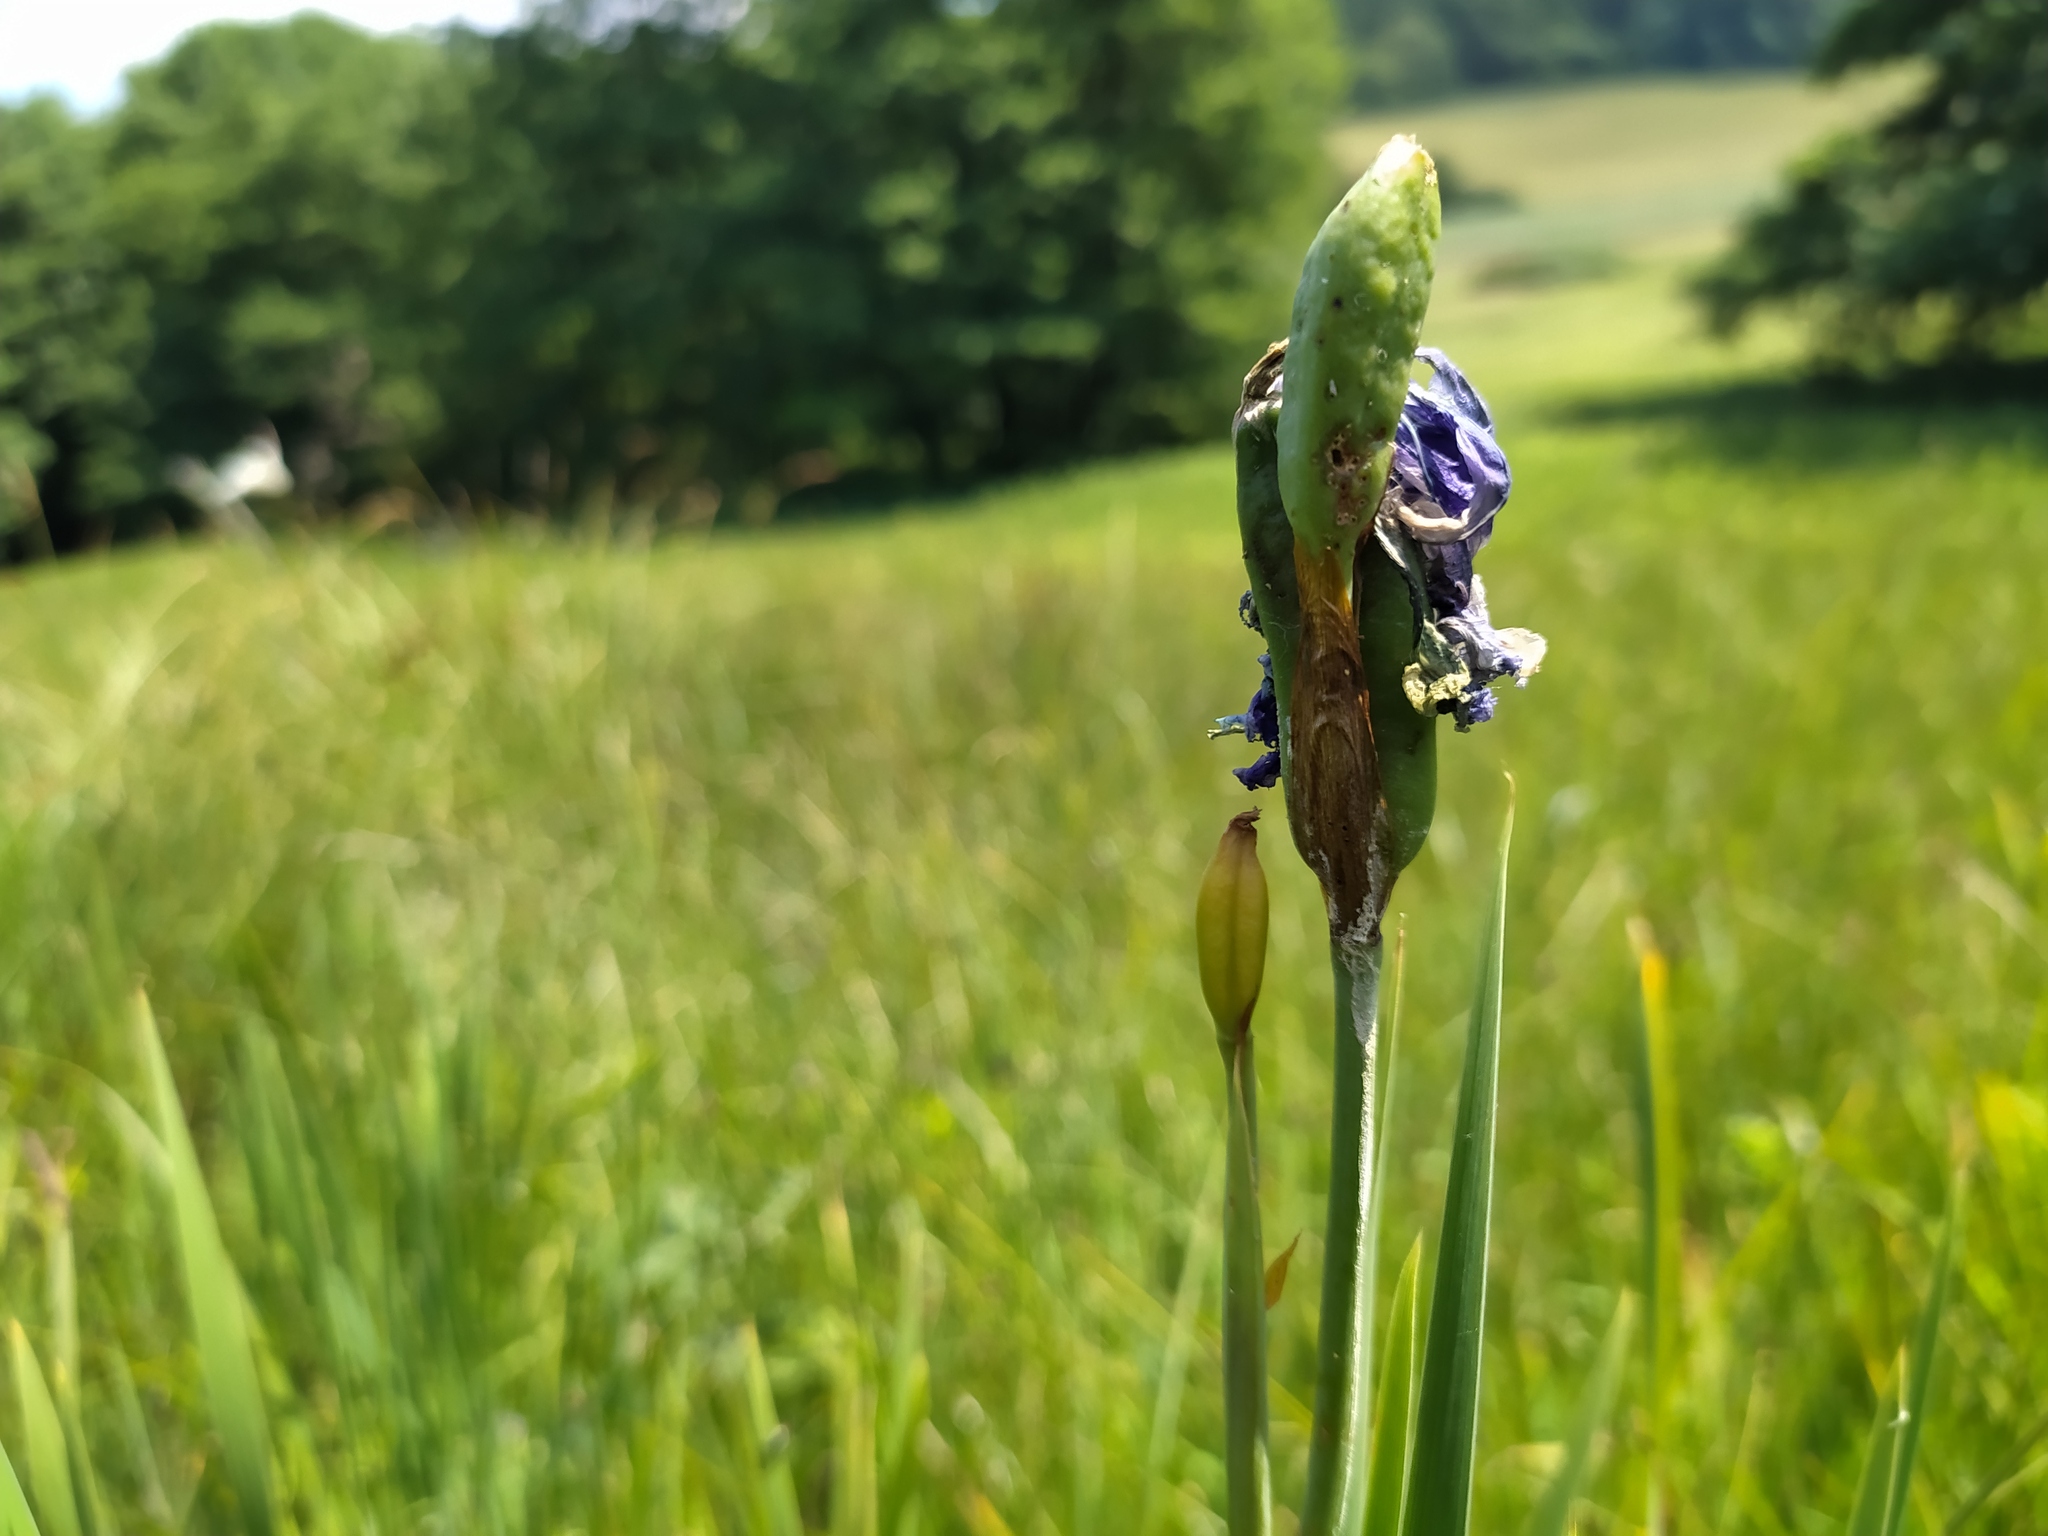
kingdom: Plantae
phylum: Tracheophyta
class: Liliopsida
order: Asparagales
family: Iridaceae
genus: Iris
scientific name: Iris sibirica
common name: Siberian iris
